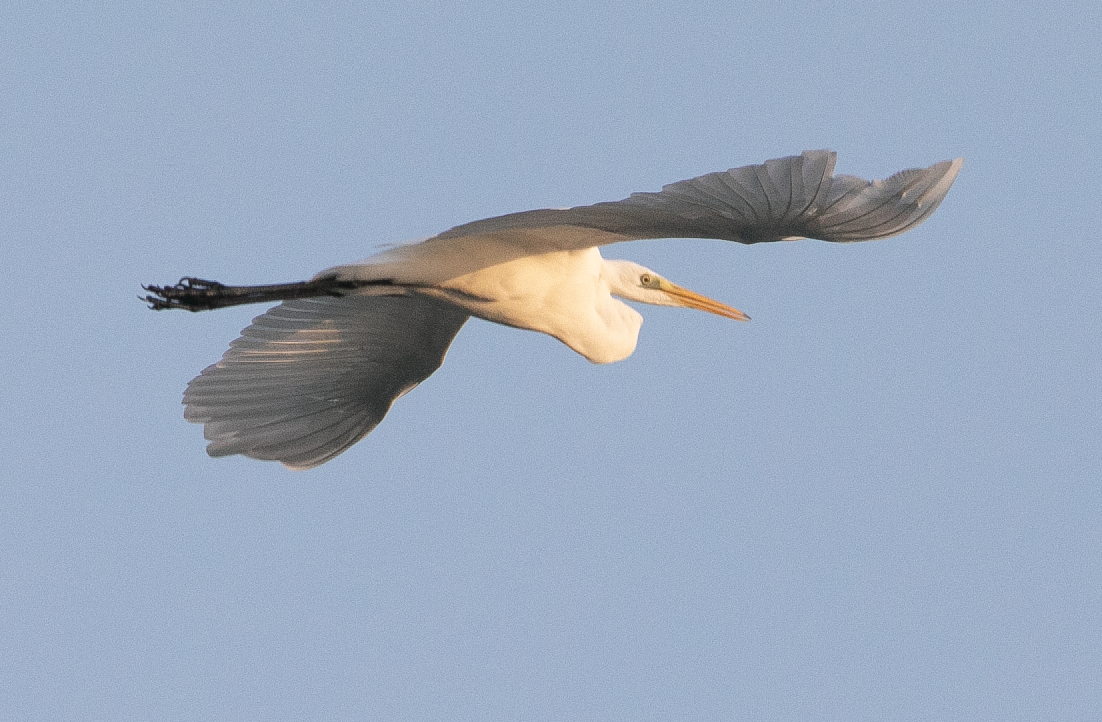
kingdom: Animalia
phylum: Chordata
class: Aves
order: Pelecaniformes
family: Ardeidae
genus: Ardea
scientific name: Ardea alba
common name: Great egret
